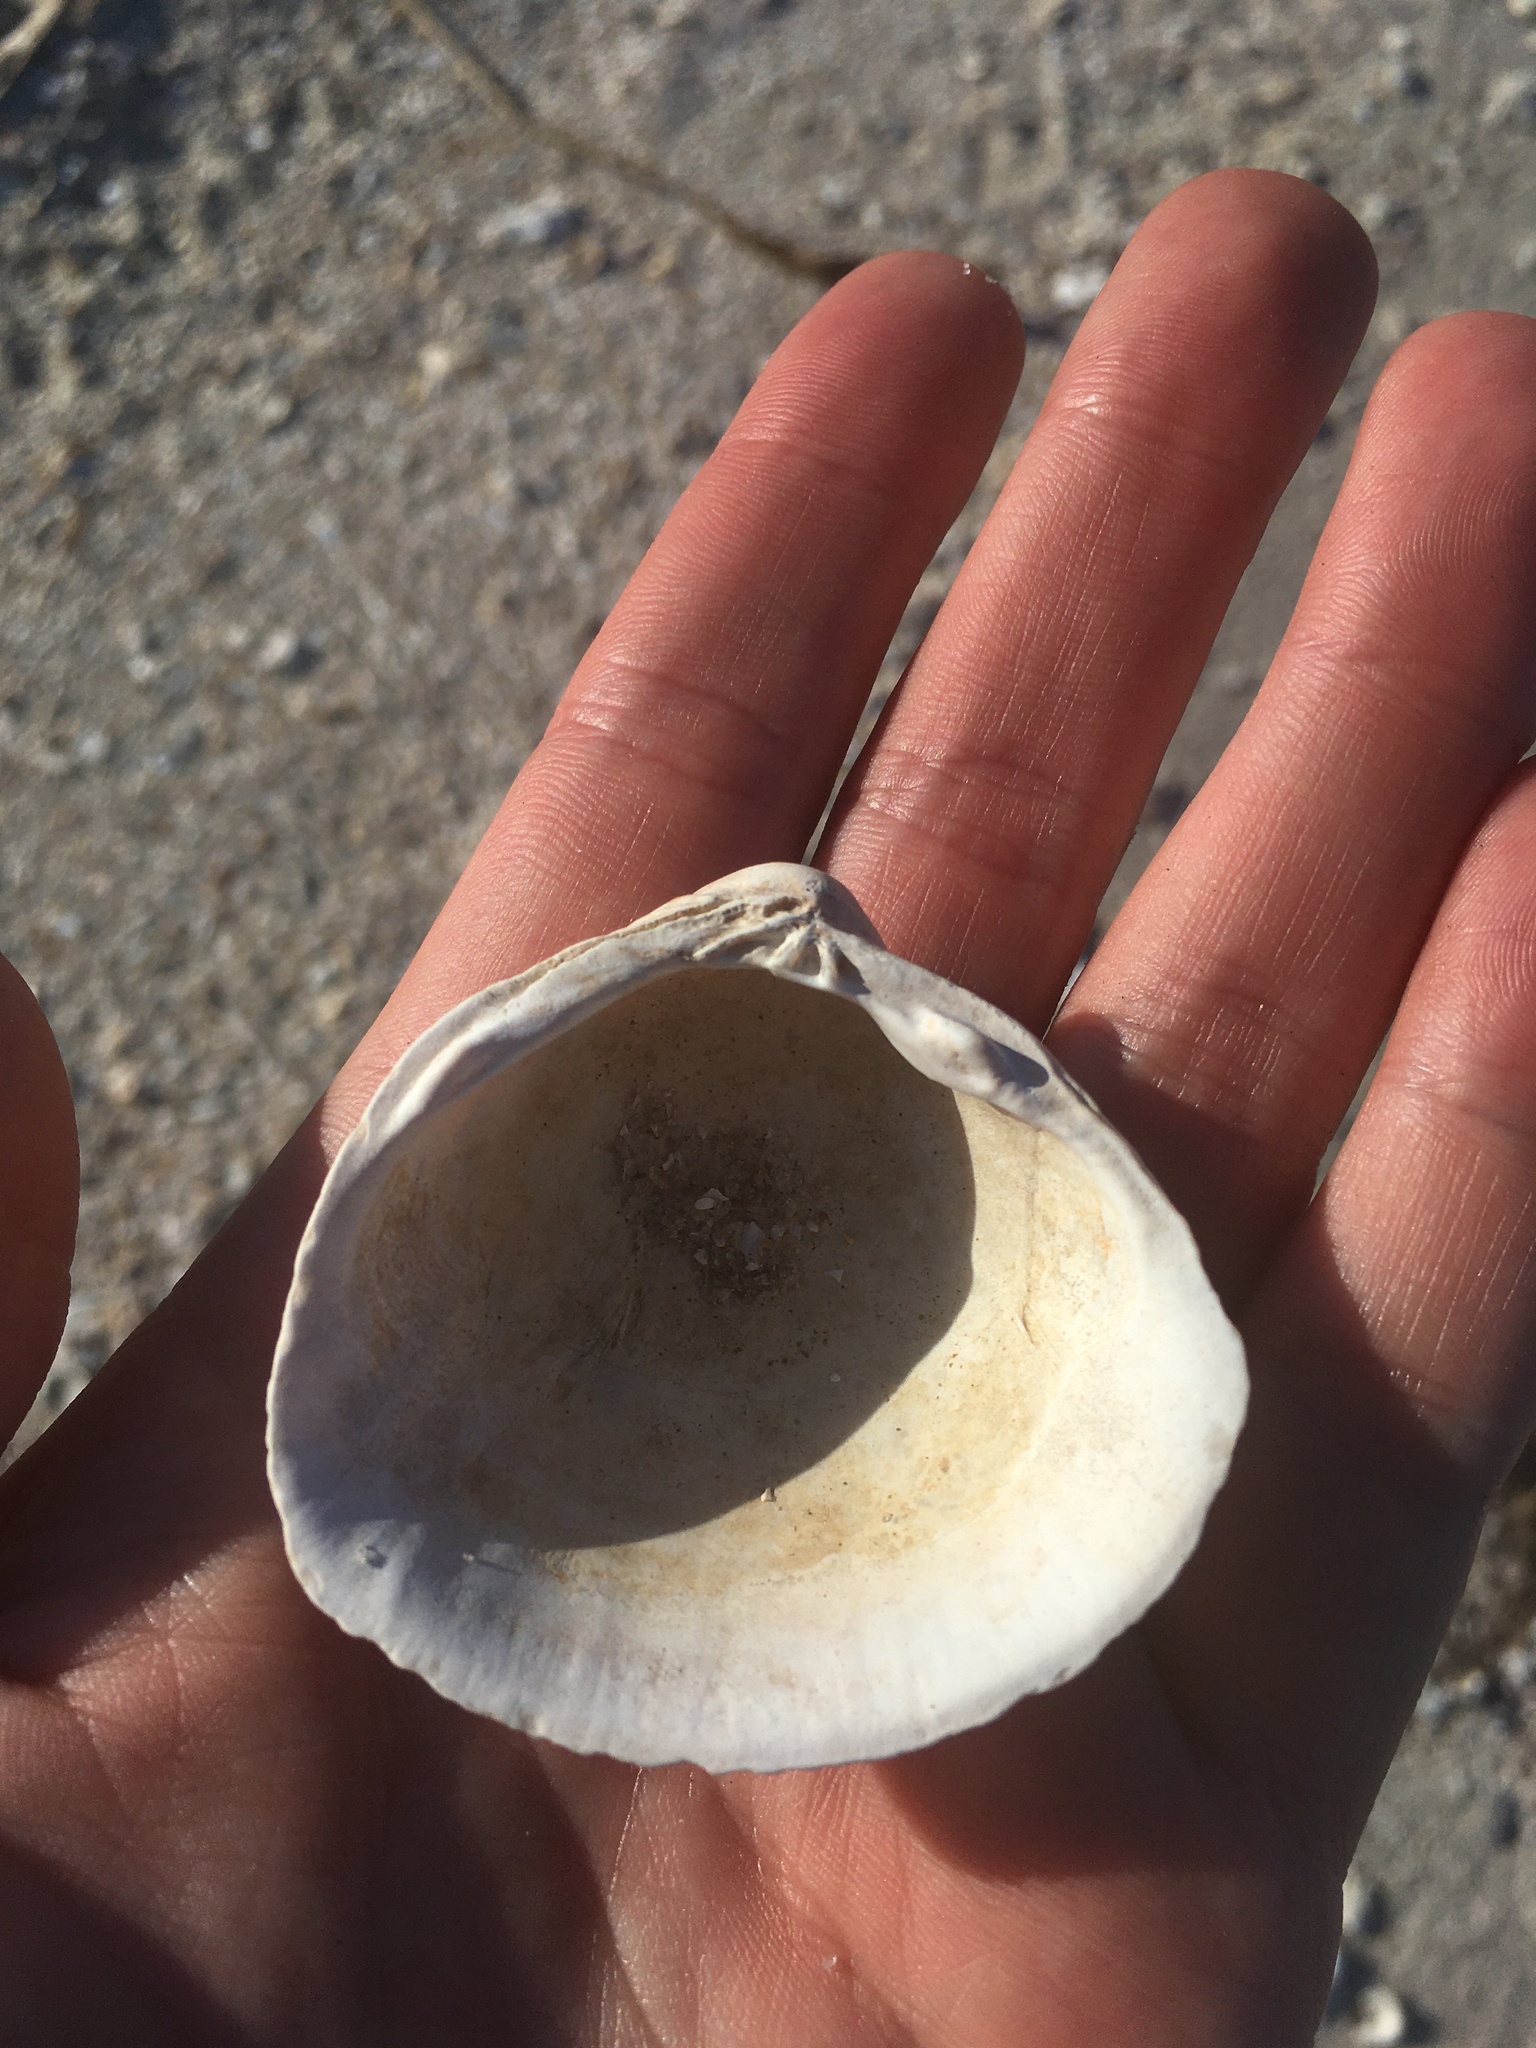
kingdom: Animalia
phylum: Mollusca
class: Bivalvia
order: Venerida
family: Cyrenidae
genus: Polymesoda
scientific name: Polymesoda caroliniana
